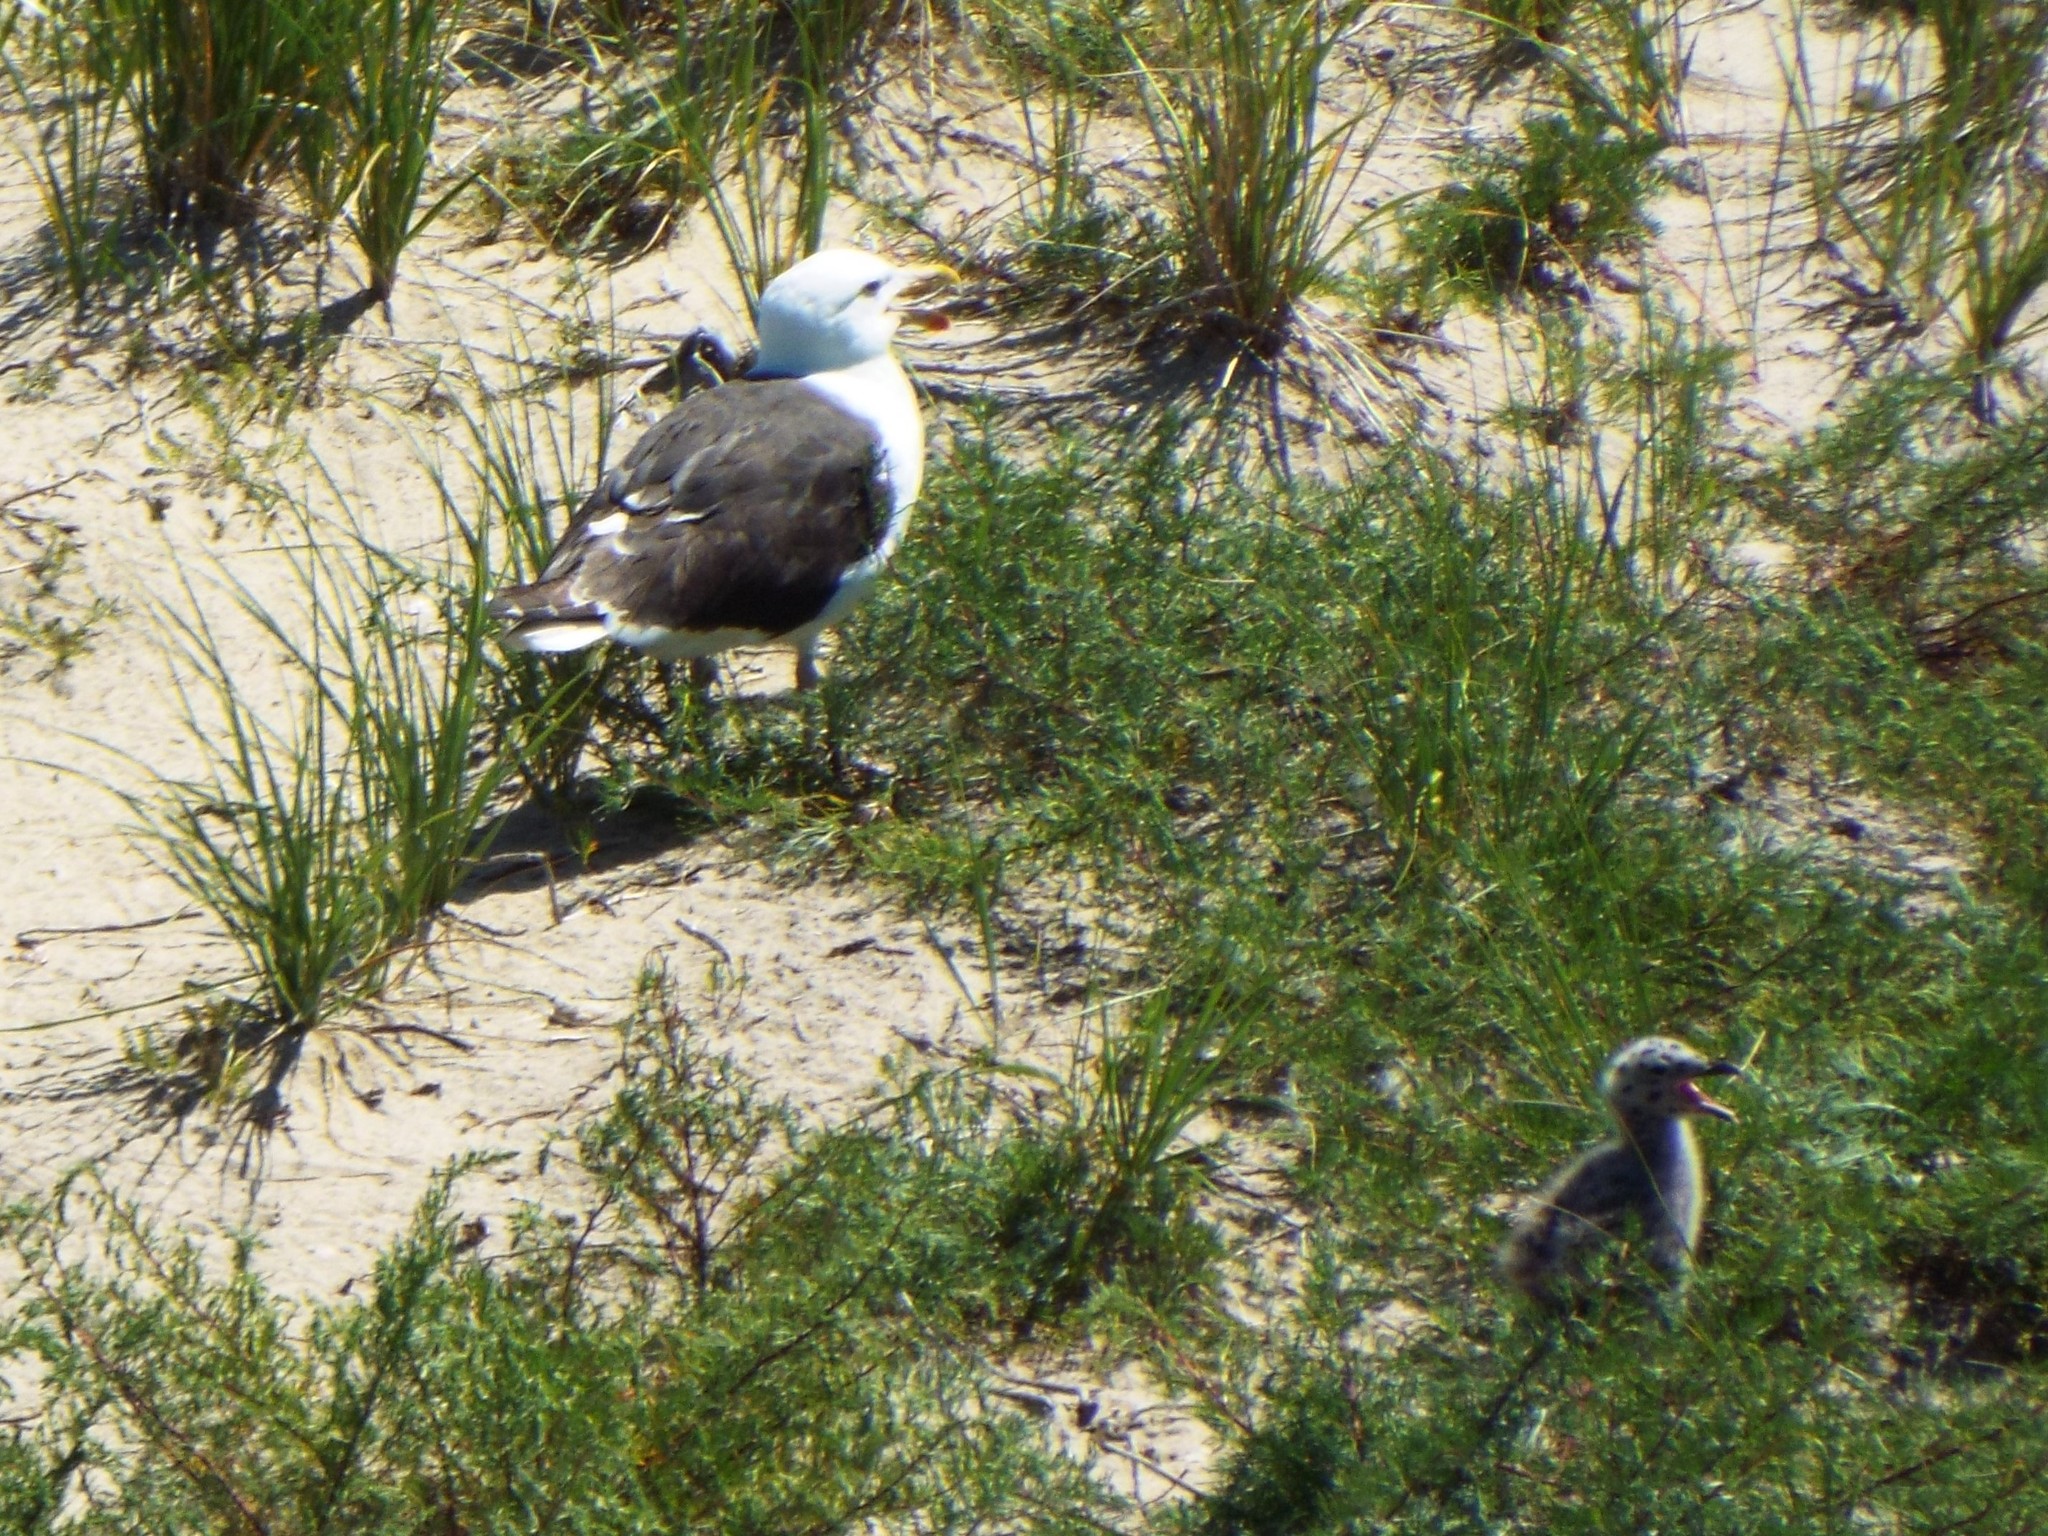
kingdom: Animalia
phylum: Chordata
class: Aves
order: Charadriiformes
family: Laridae
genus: Larus
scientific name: Larus marinus
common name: Great black-backed gull
